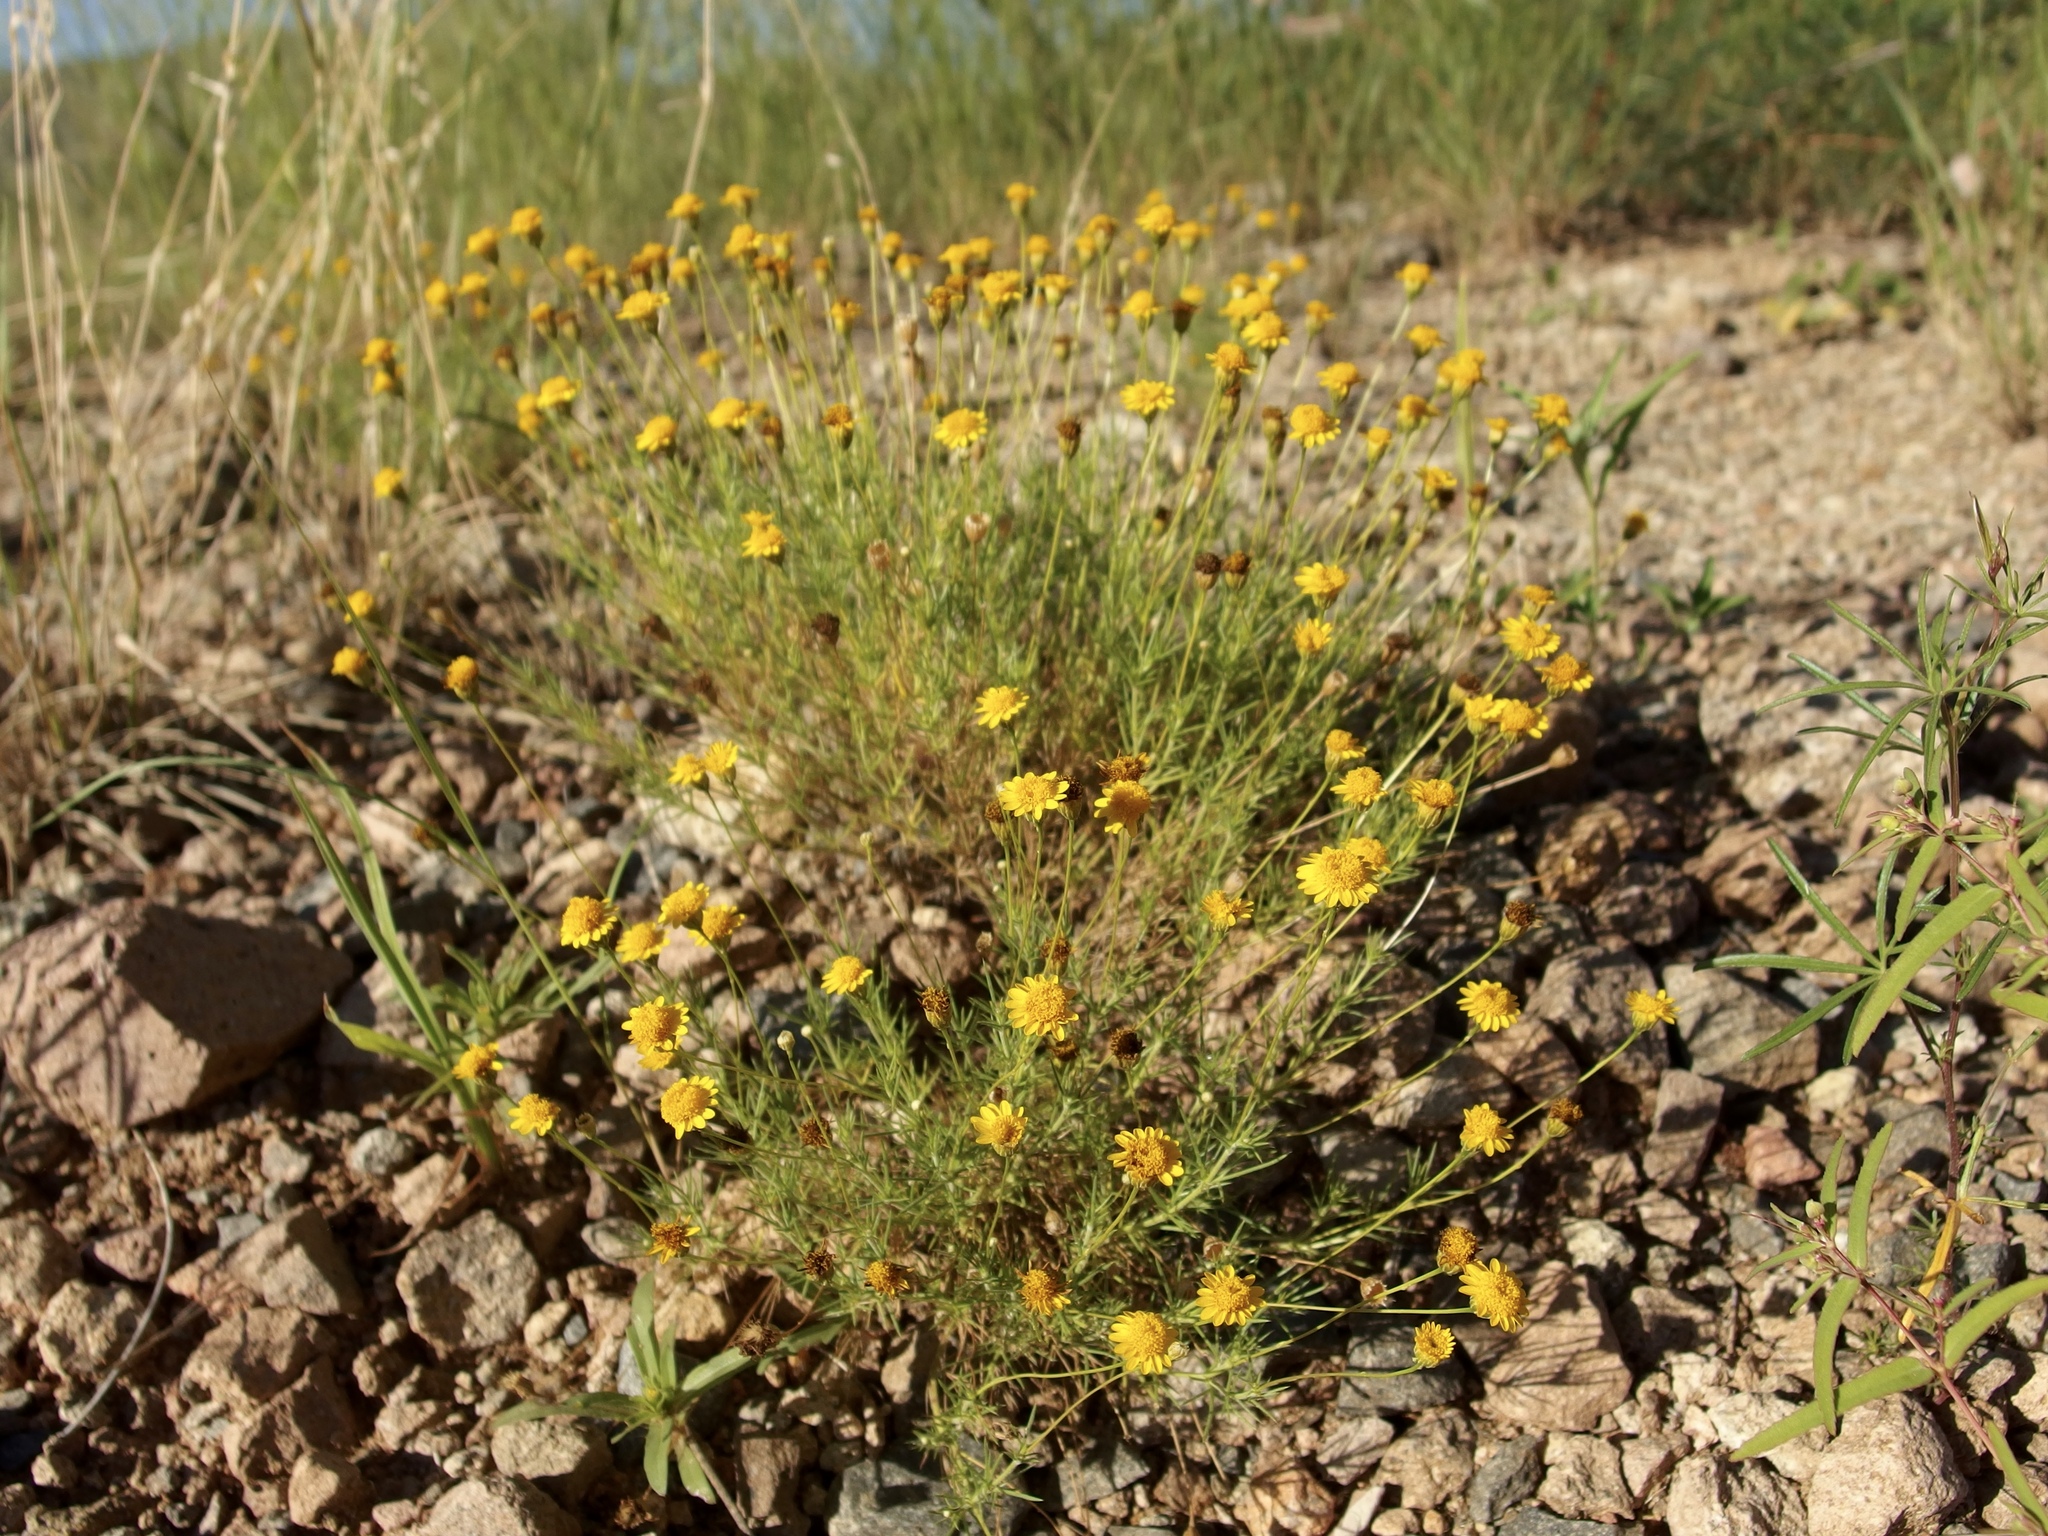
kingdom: Plantae
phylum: Tracheophyta
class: Magnoliopsida
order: Asterales
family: Asteraceae
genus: Thymophylla
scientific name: Thymophylla pentachaeta
